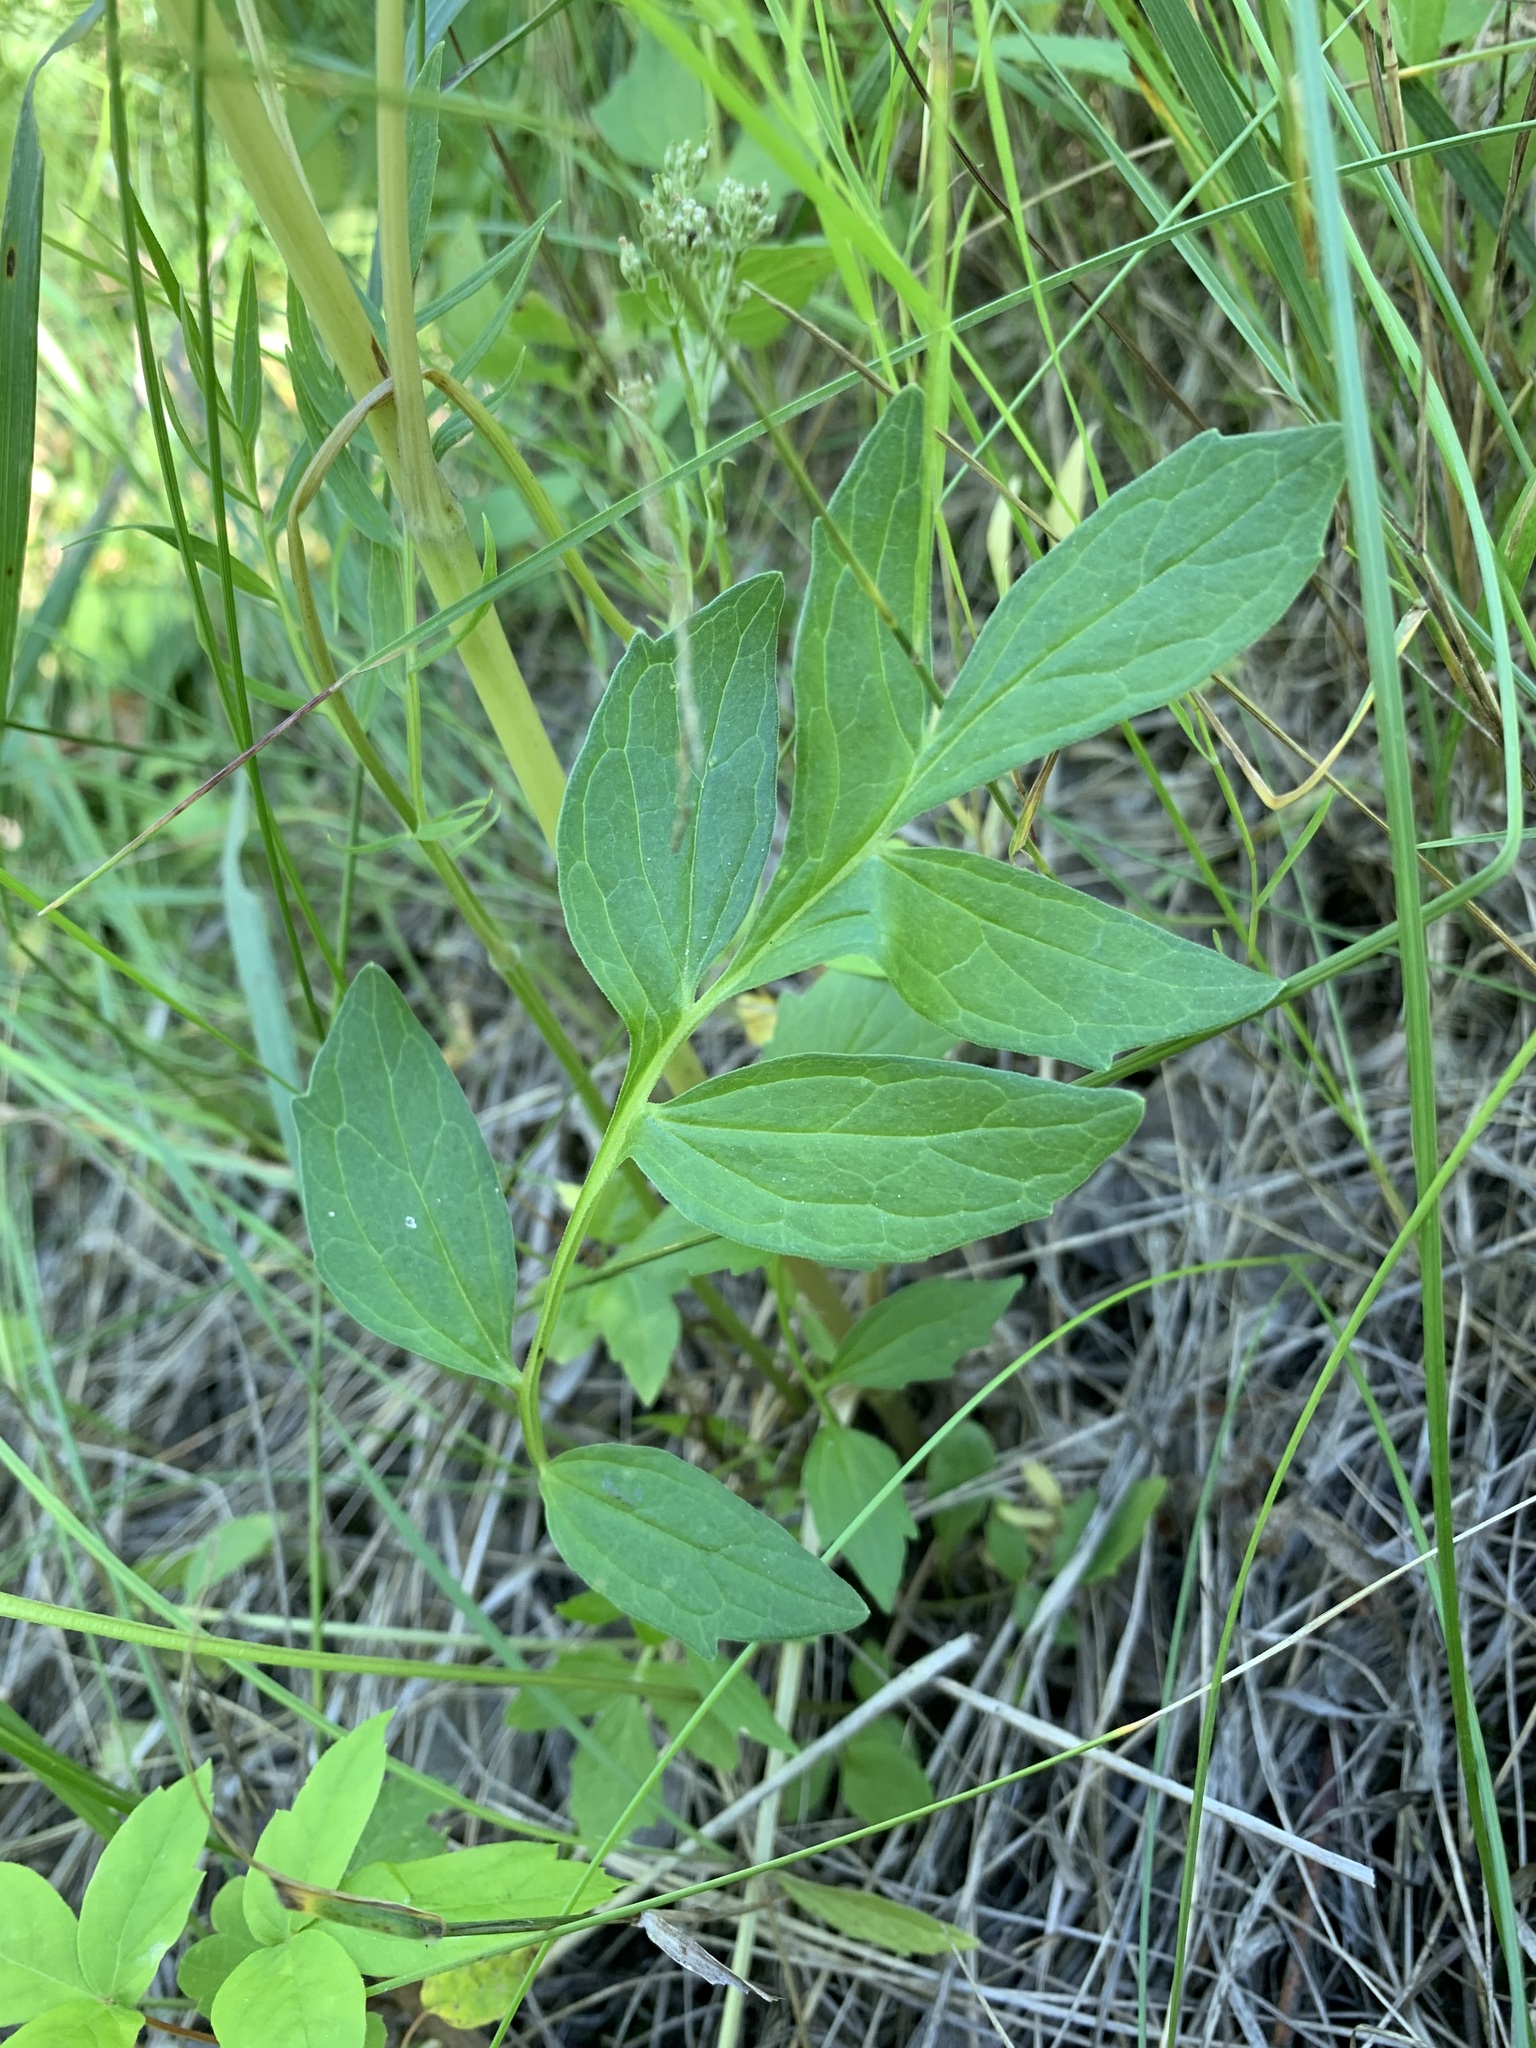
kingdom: Plantae
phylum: Tracheophyta
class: Magnoliopsida
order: Dipsacales
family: Caprifoliaceae
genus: Valeriana
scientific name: Valeriana wolgensis
